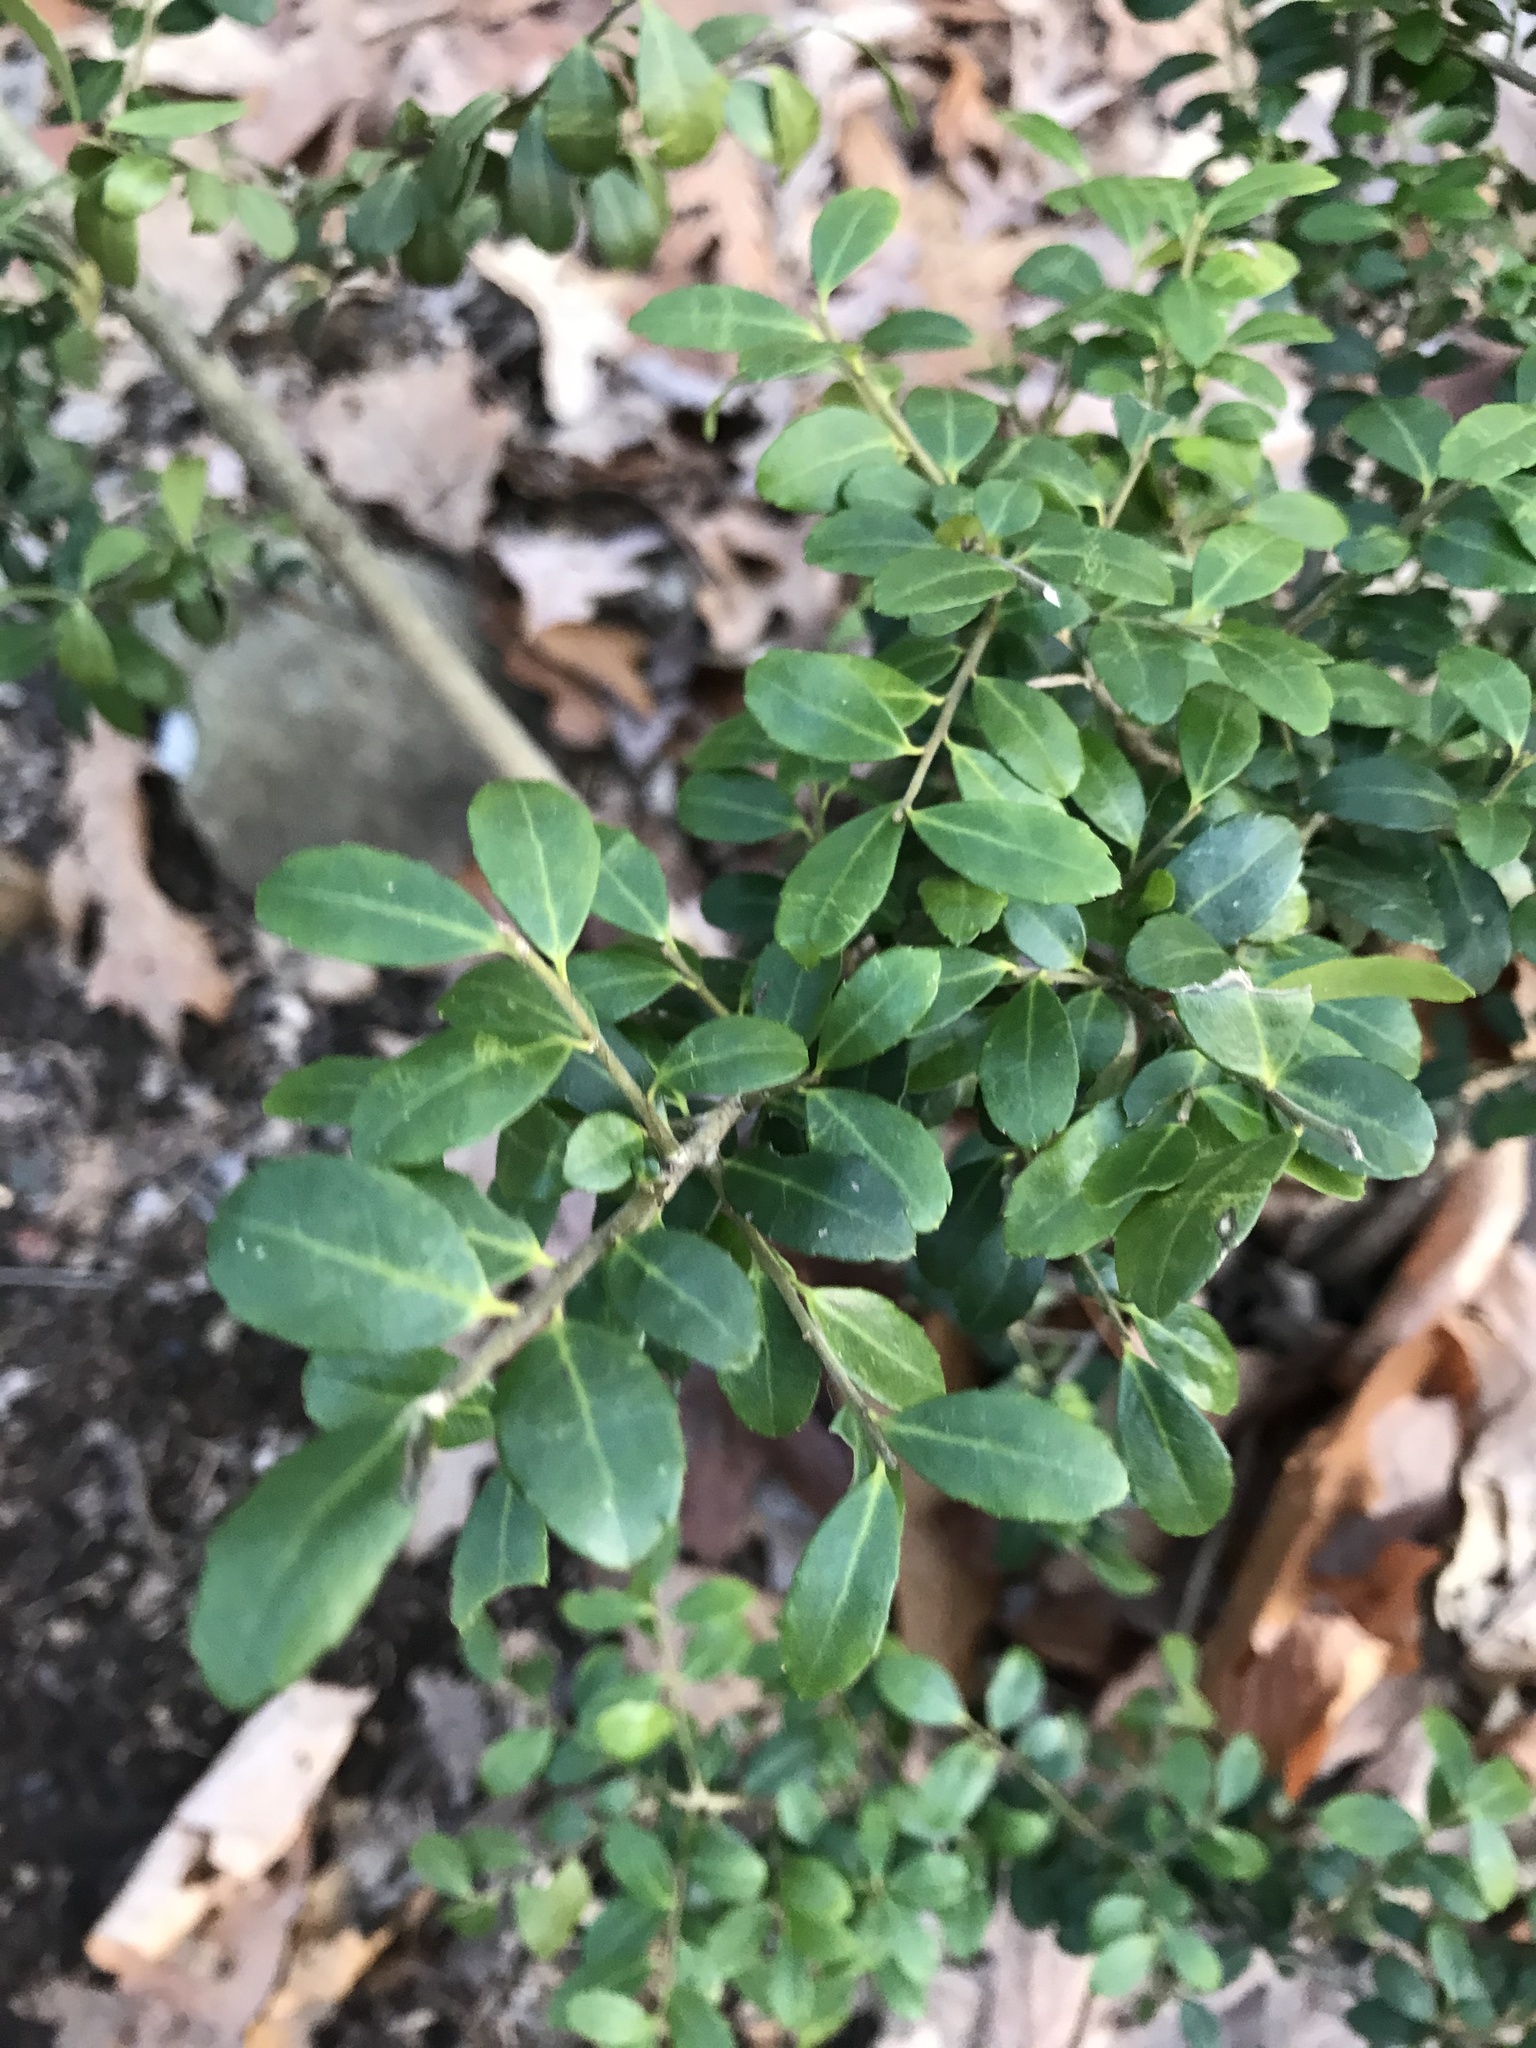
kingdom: Plantae
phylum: Tracheophyta
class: Magnoliopsida
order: Aquifoliales
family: Aquifoliaceae
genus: Ilex
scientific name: Ilex crenata
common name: Japanese holly
